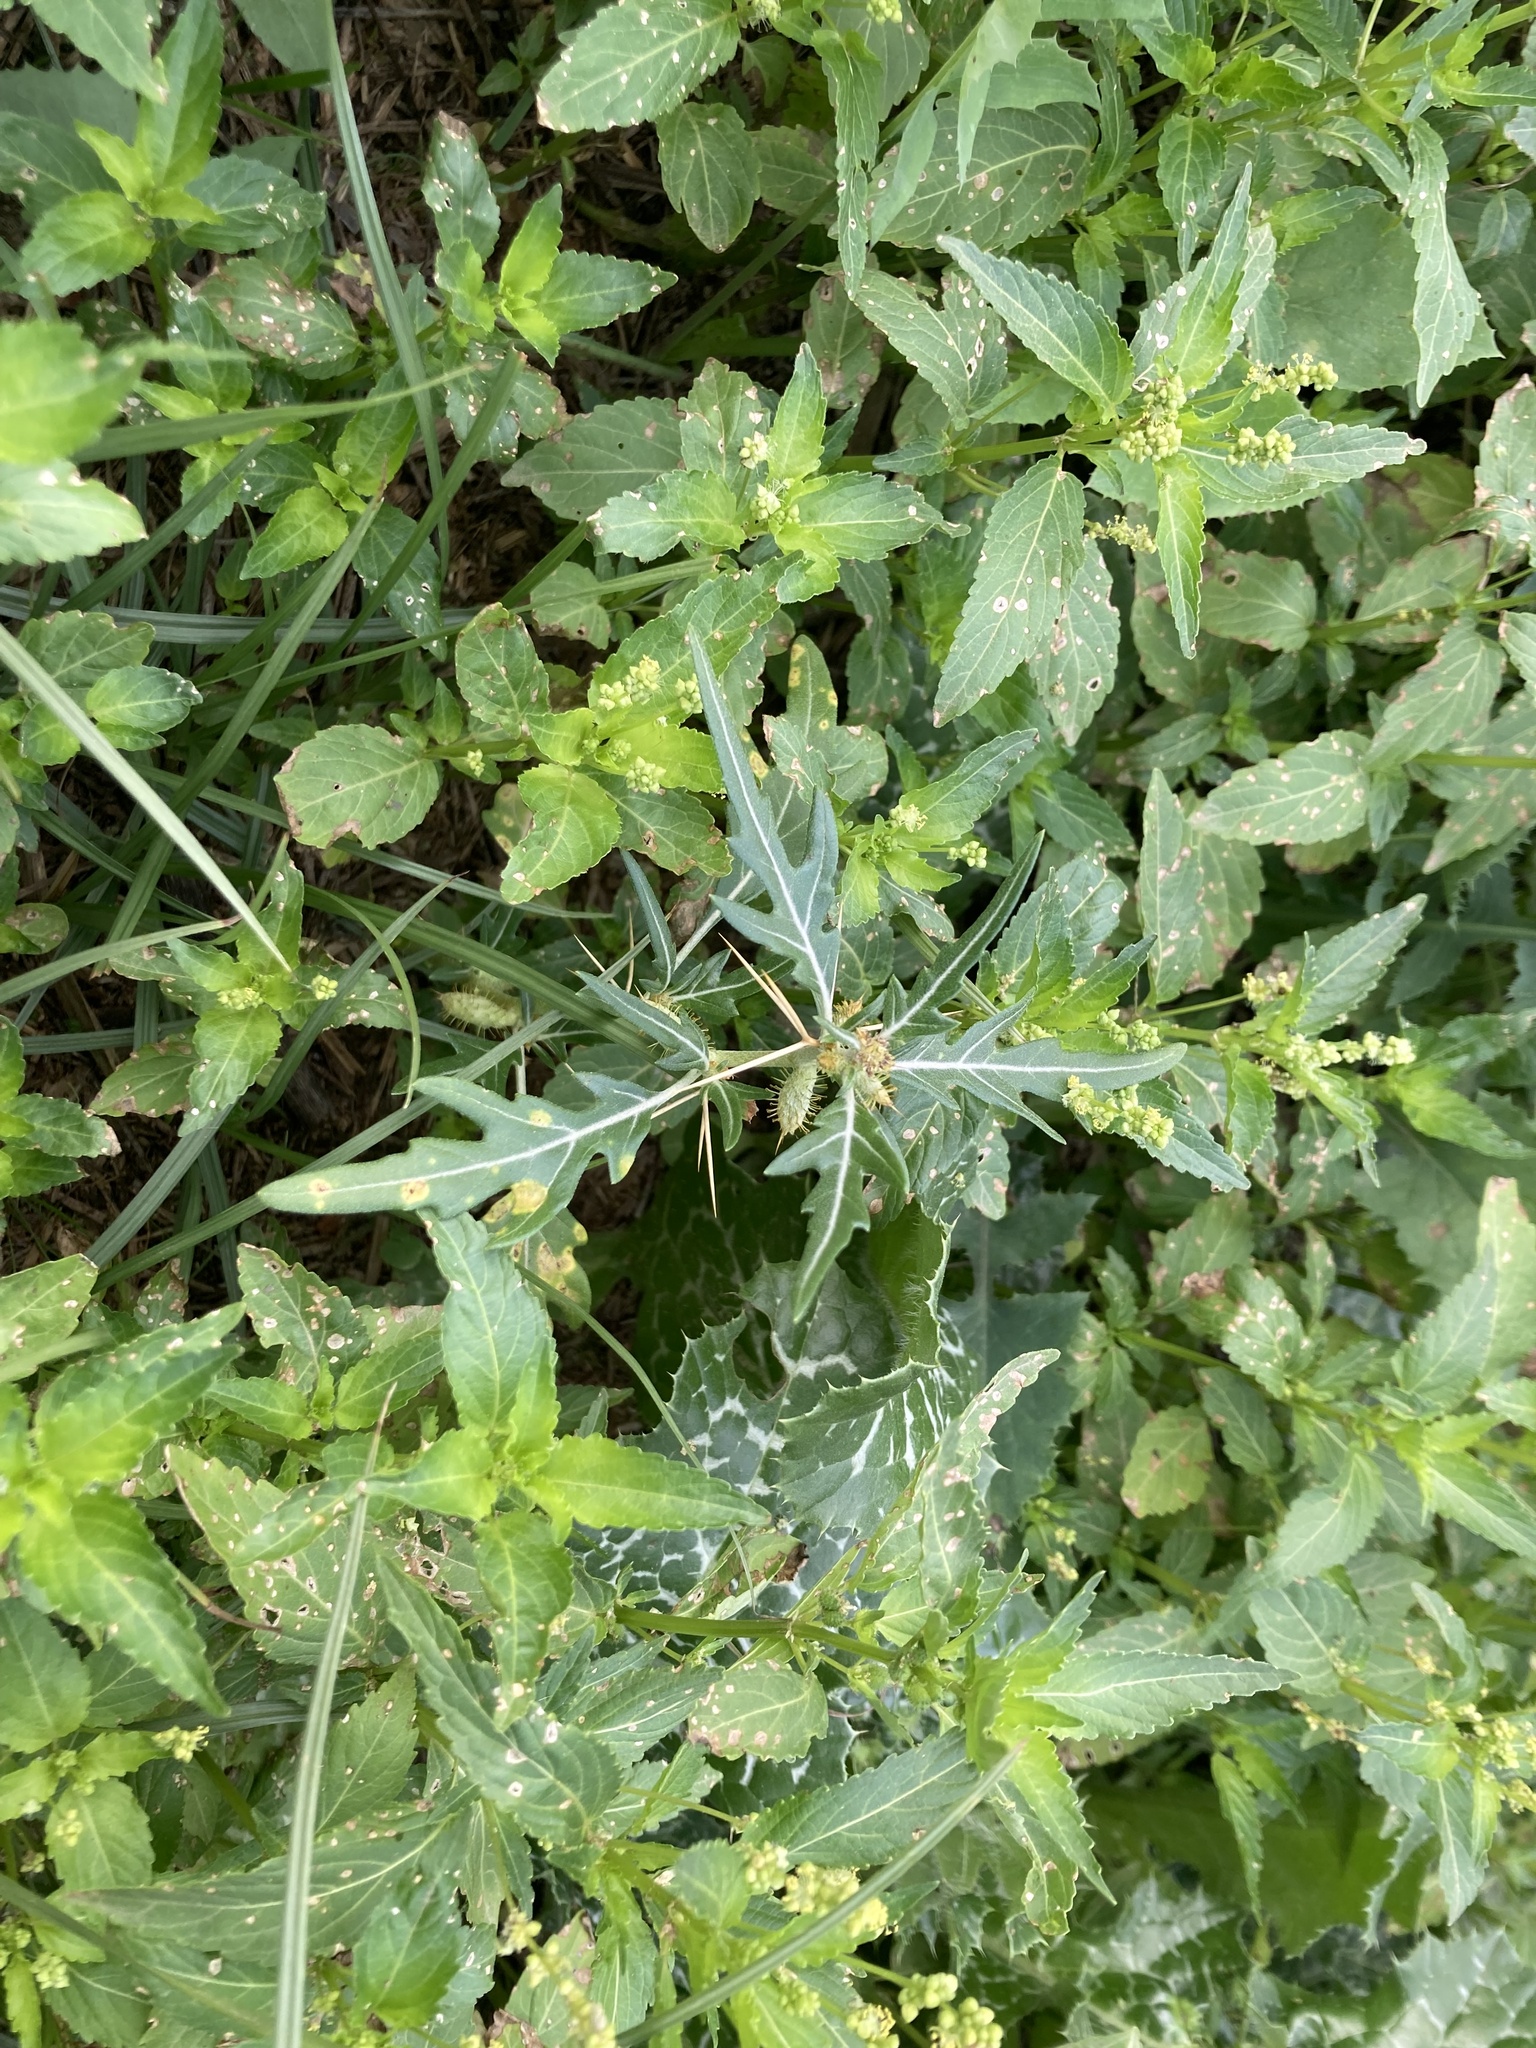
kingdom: Plantae
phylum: Tracheophyta
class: Magnoliopsida
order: Asterales
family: Asteraceae
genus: Xanthium
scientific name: Xanthium spinosum
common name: Spiny cocklebur
